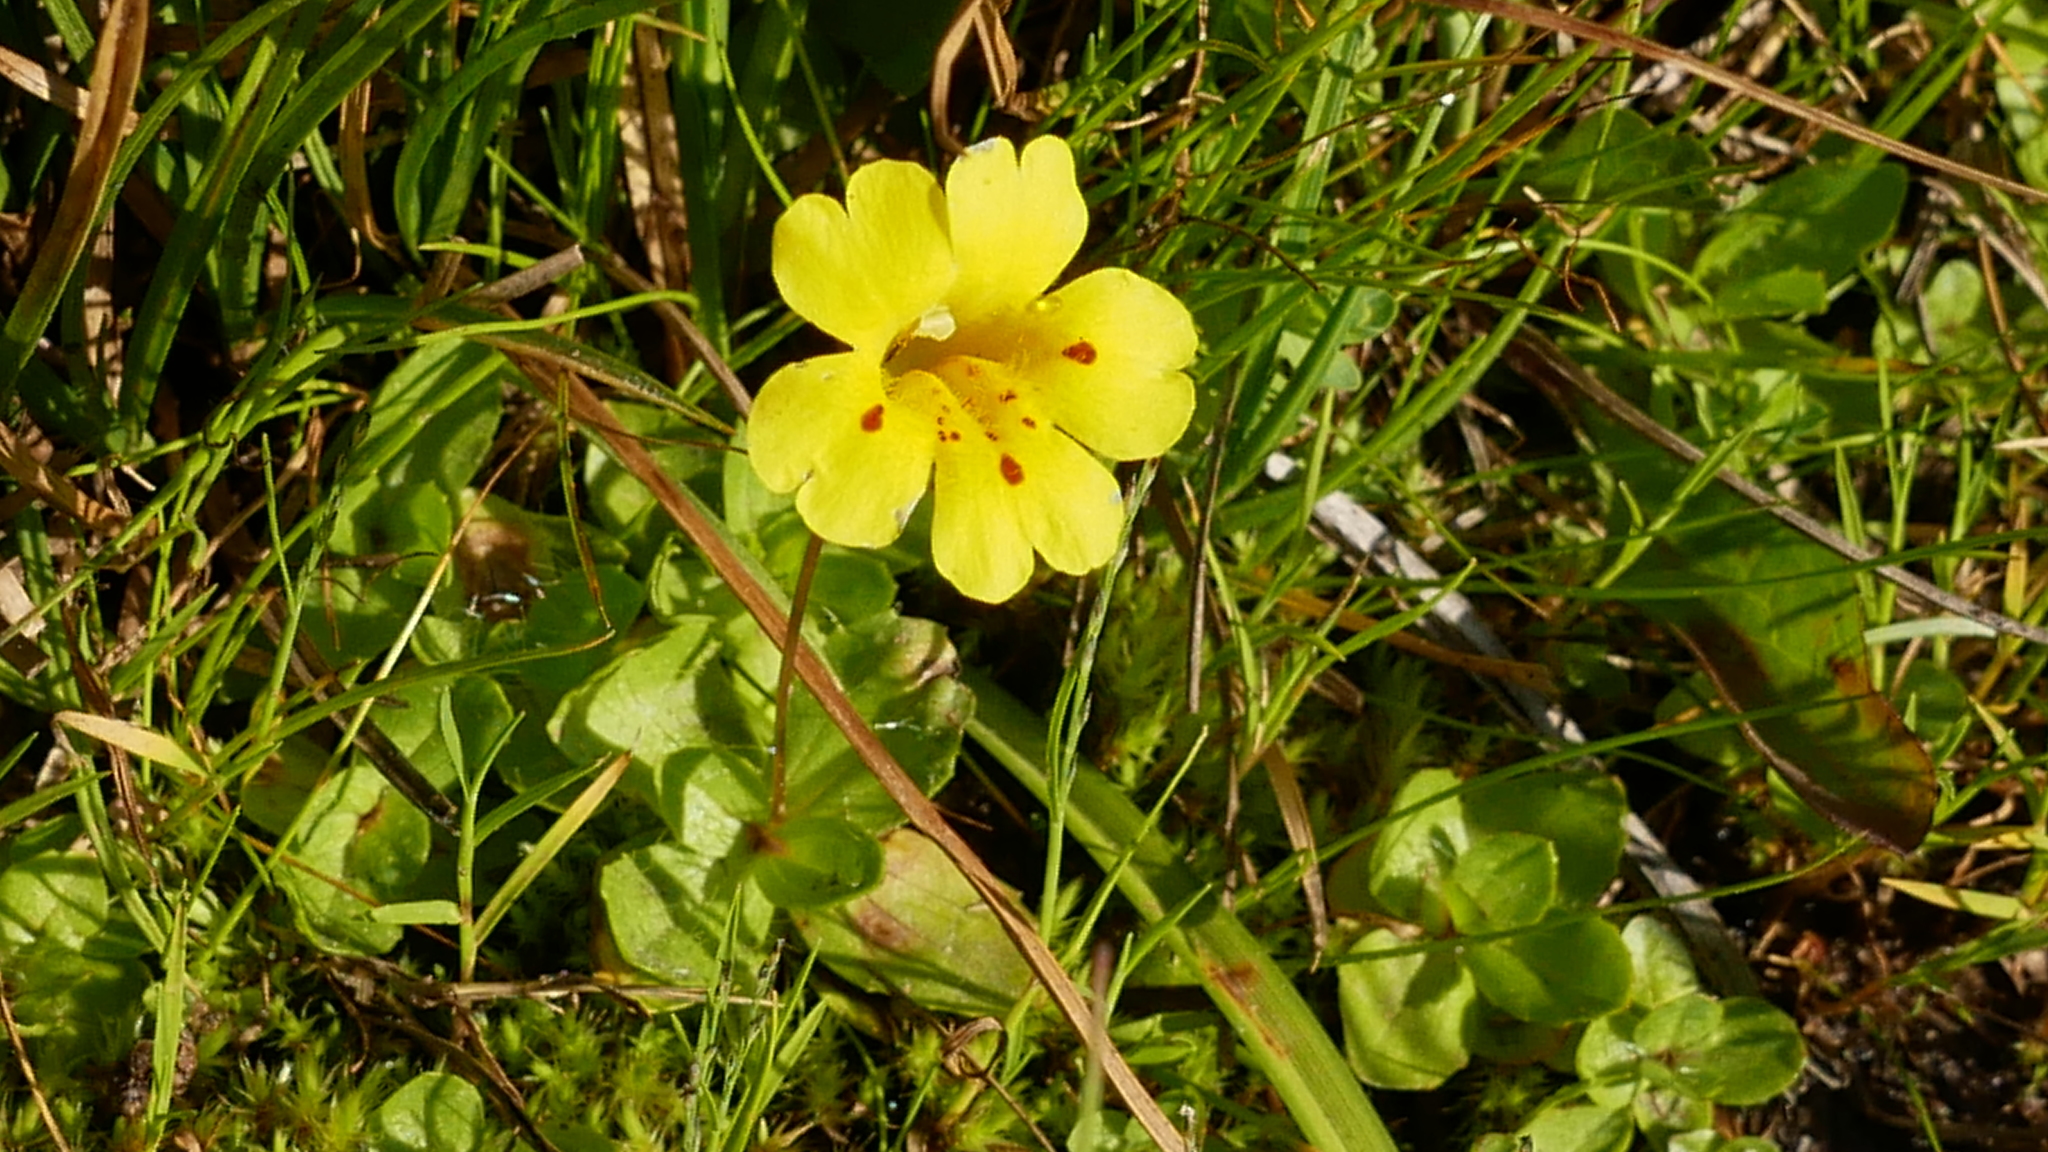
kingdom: Plantae
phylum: Tracheophyta
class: Magnoliopsida
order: Lamiales
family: Phrymaceae
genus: Erythranthe
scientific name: Erythranthe primuloides
